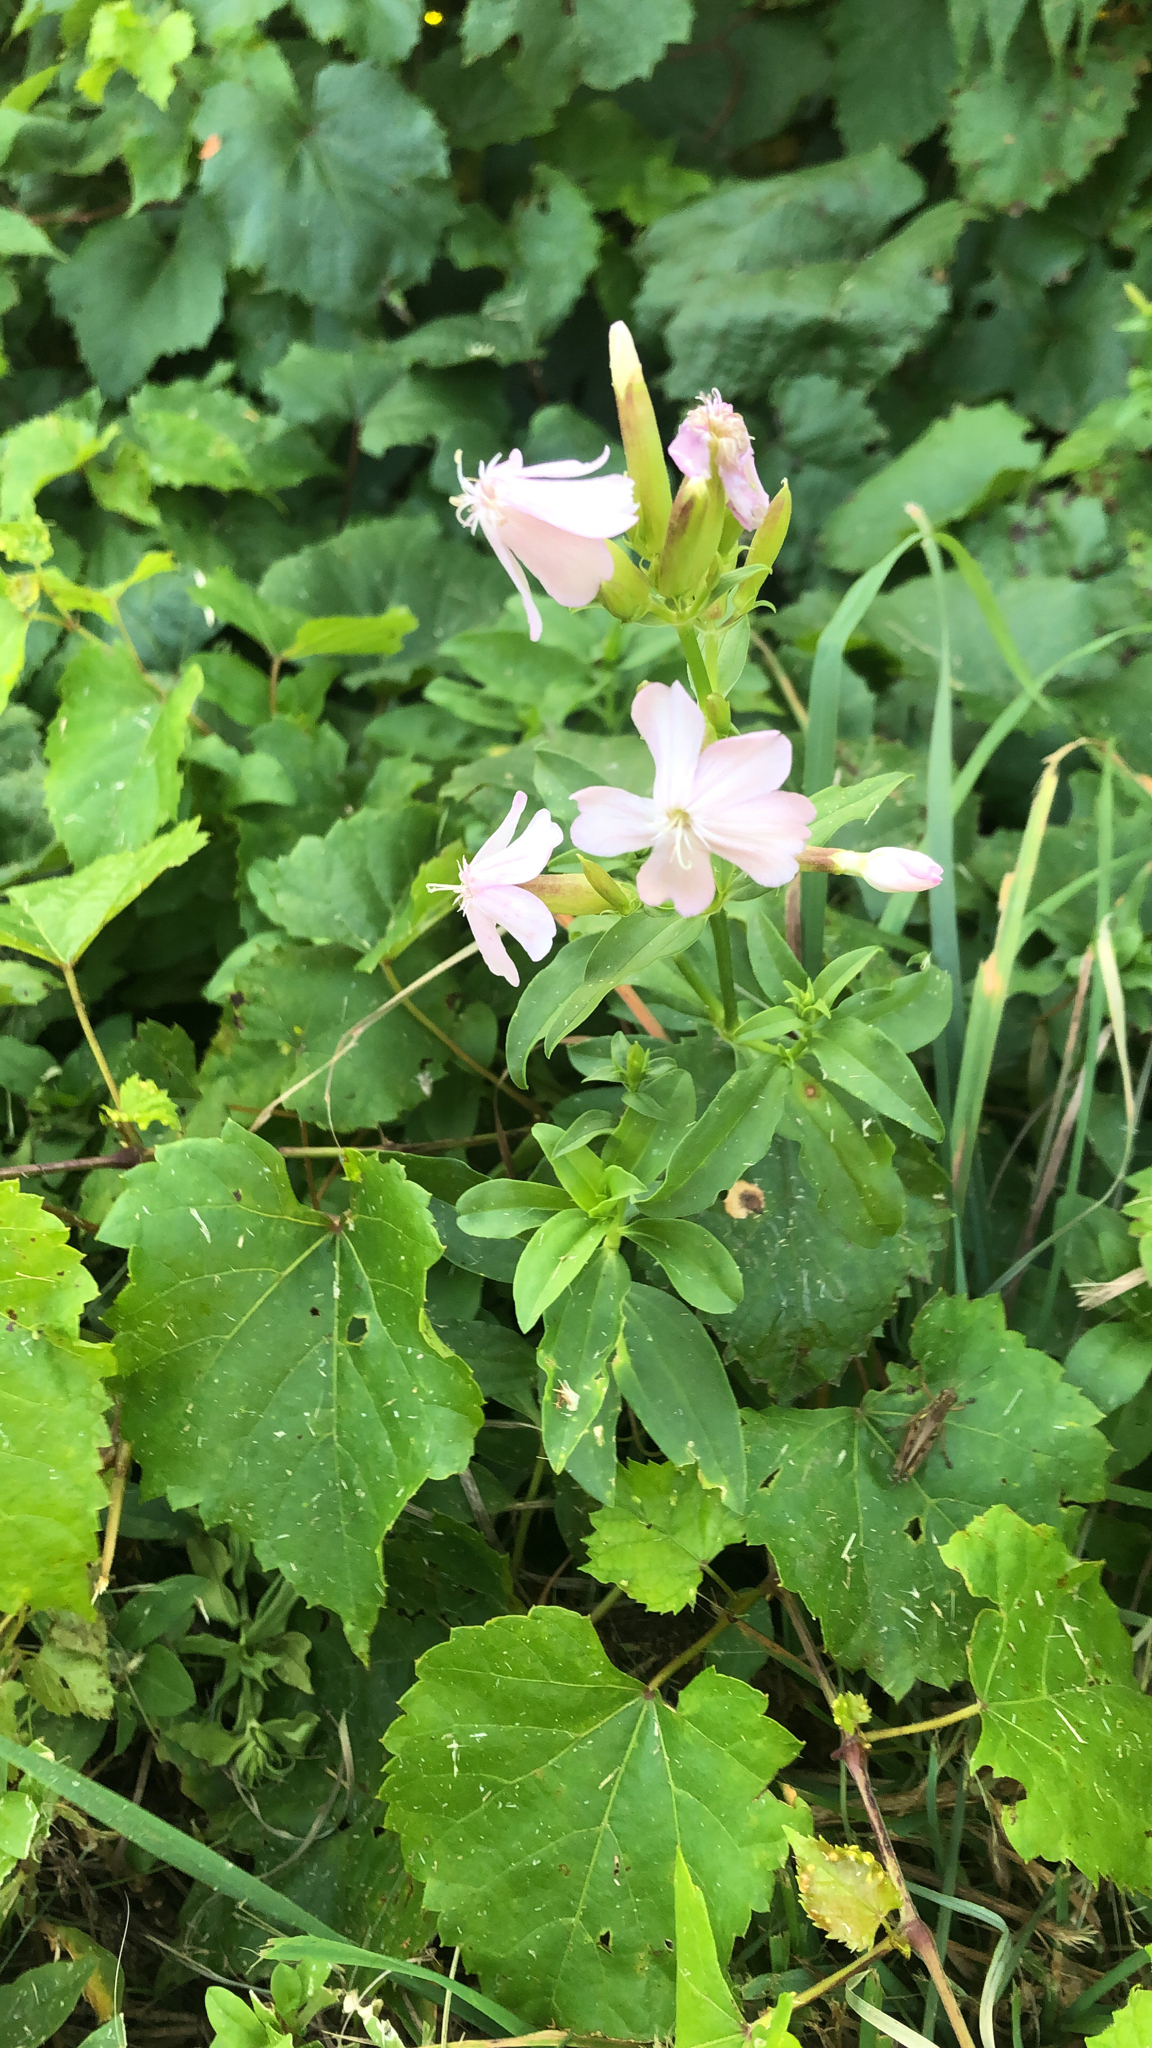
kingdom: Plantae
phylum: Tracheophyta
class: Magnoliopsida
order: Caryophyllales
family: Caryophyllaceae
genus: Saponaria
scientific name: Saponaria officinalis
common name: Soapwort
